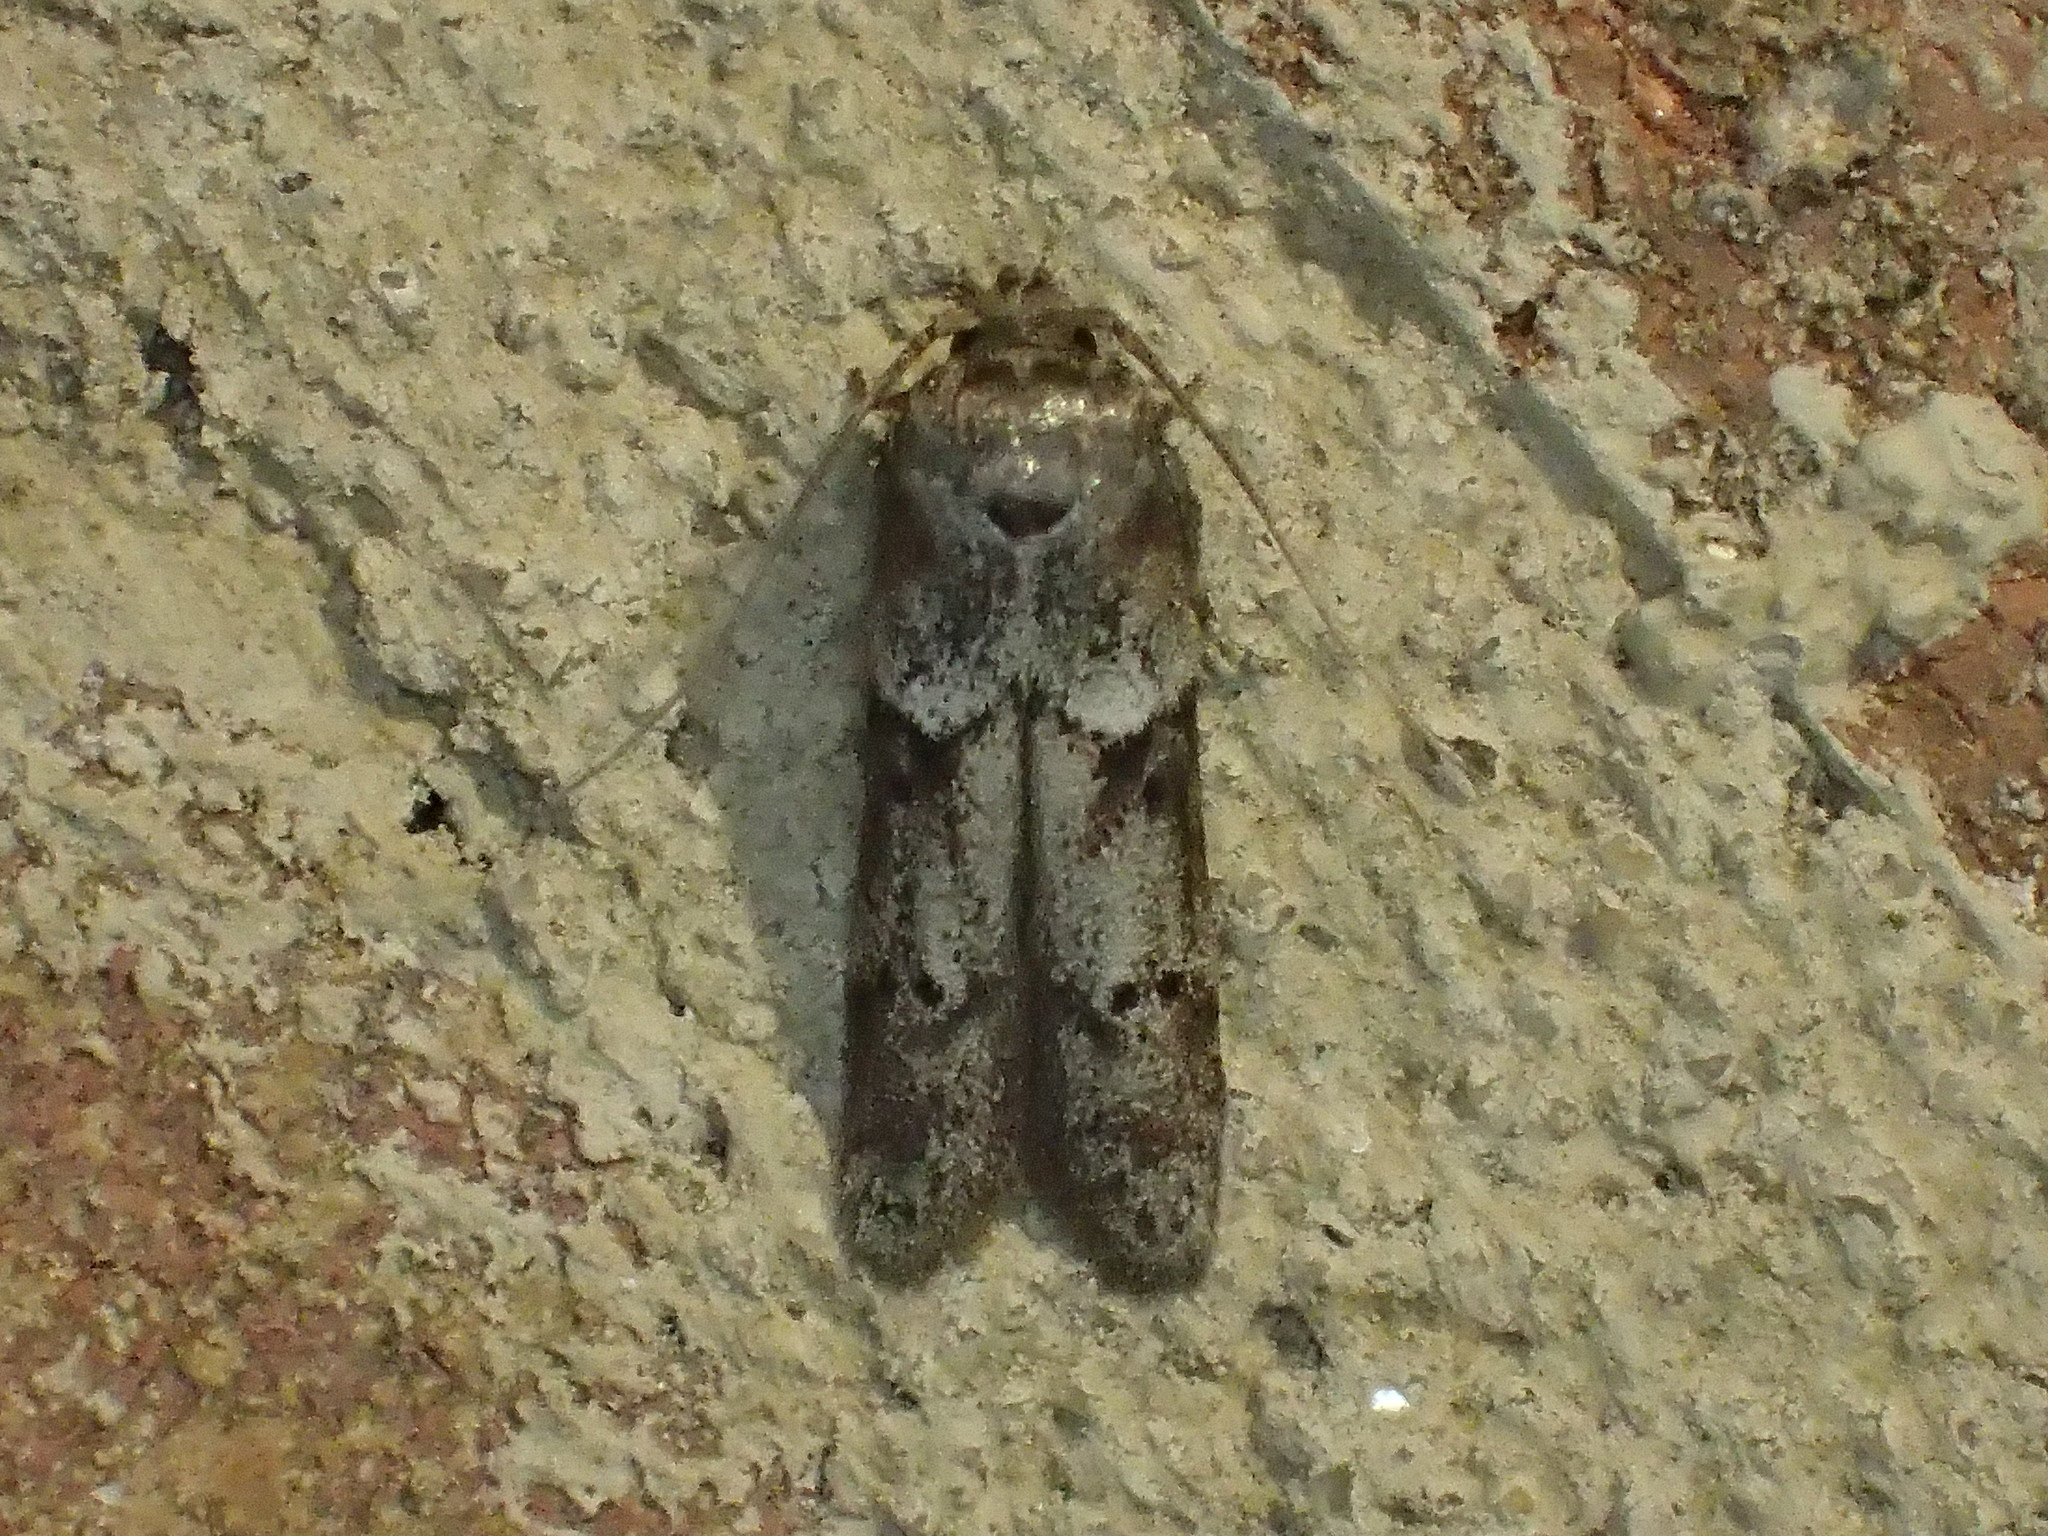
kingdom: Animalia
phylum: Arthropoda
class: Insecta
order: Lepidoptera
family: Blastobasidae
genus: Blastobasis
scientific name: Blastobasis glandulella
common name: Acorn moth
